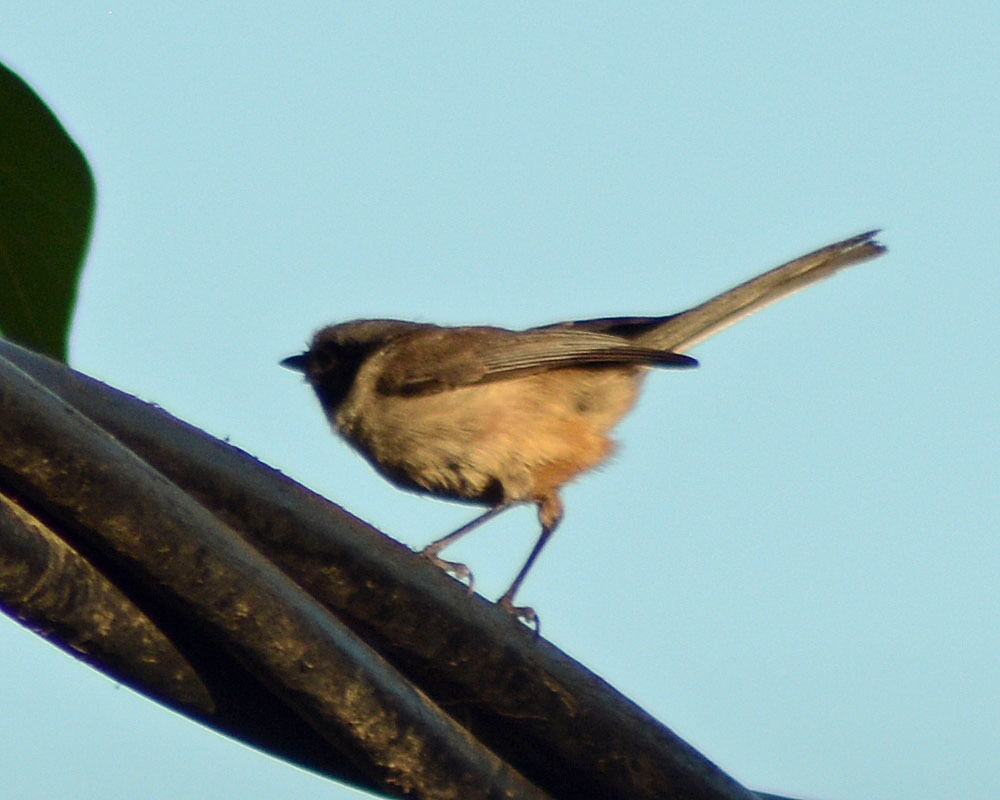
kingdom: Animalia
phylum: Chordata
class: Aves
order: Passeriformes
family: Aegithalidae
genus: Psaltriparus
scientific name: Psaltriparus minimus
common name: American bushtit
